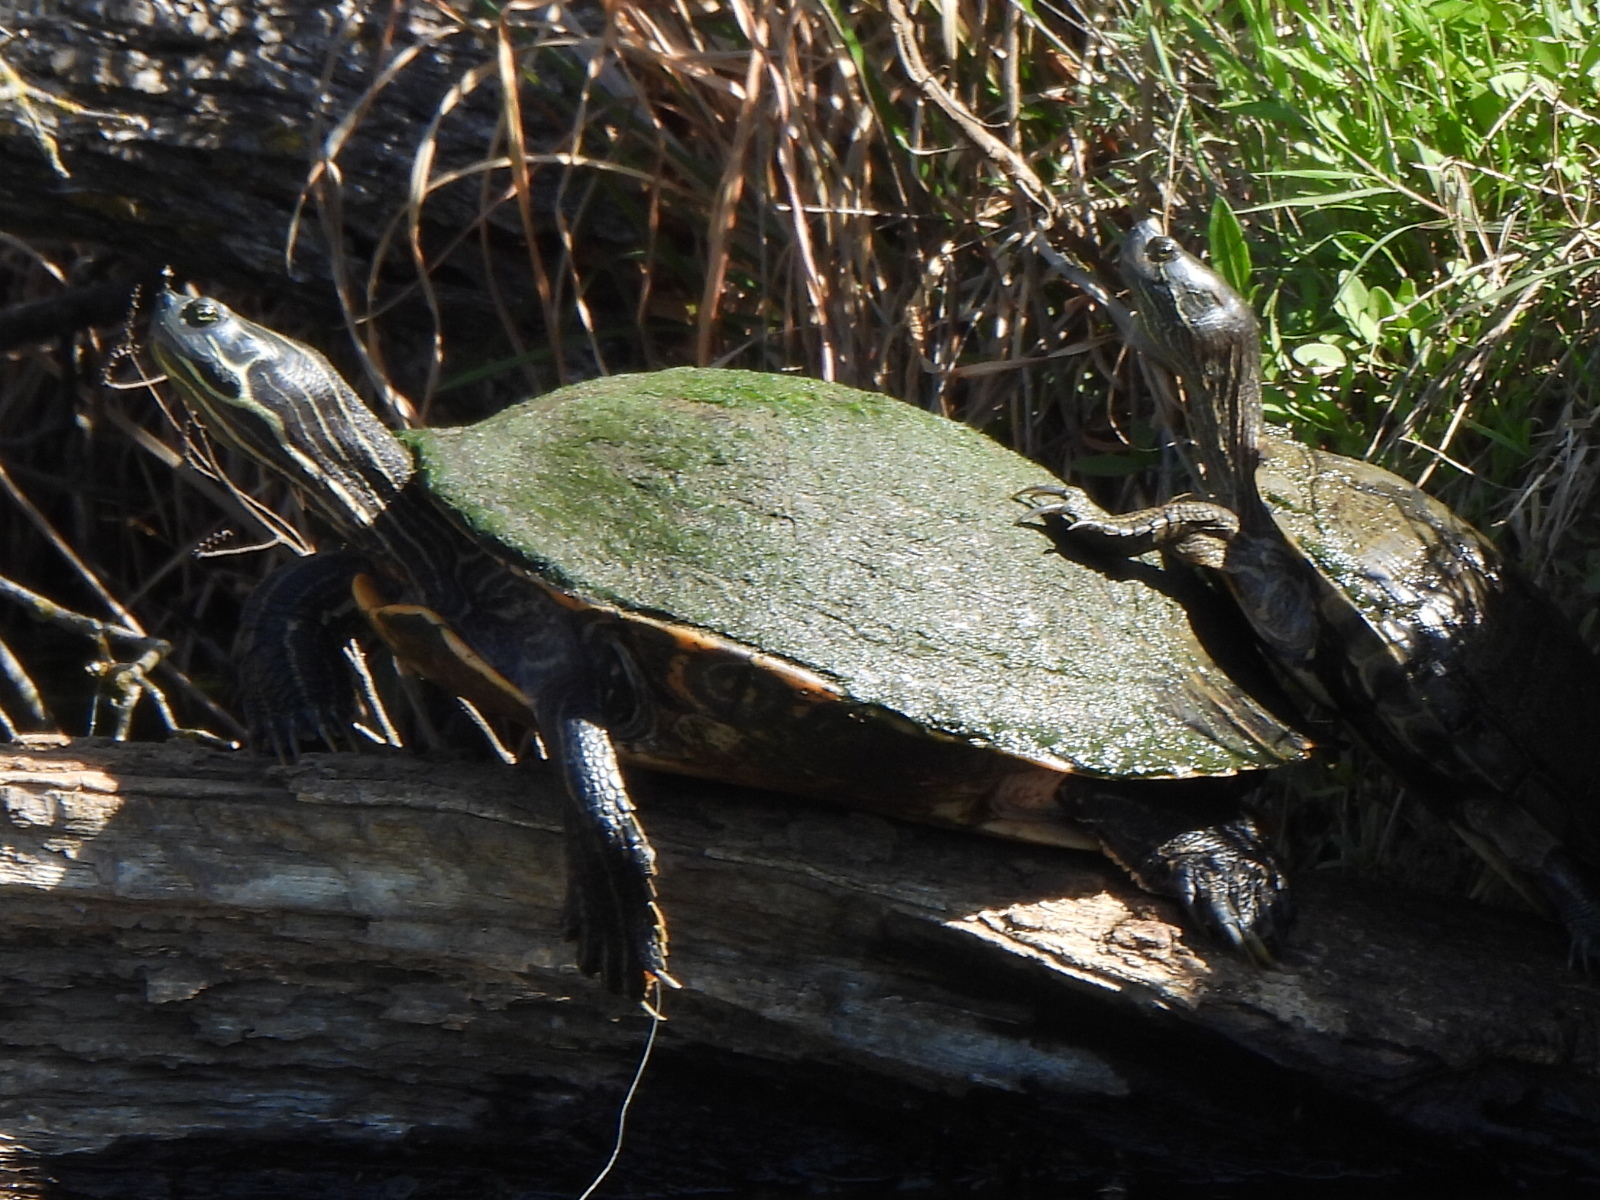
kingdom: Animalia
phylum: Chordata
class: Testudines
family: Emydidae
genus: Pseudemys
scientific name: Pseudemys concinna
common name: Eastern river cooter
